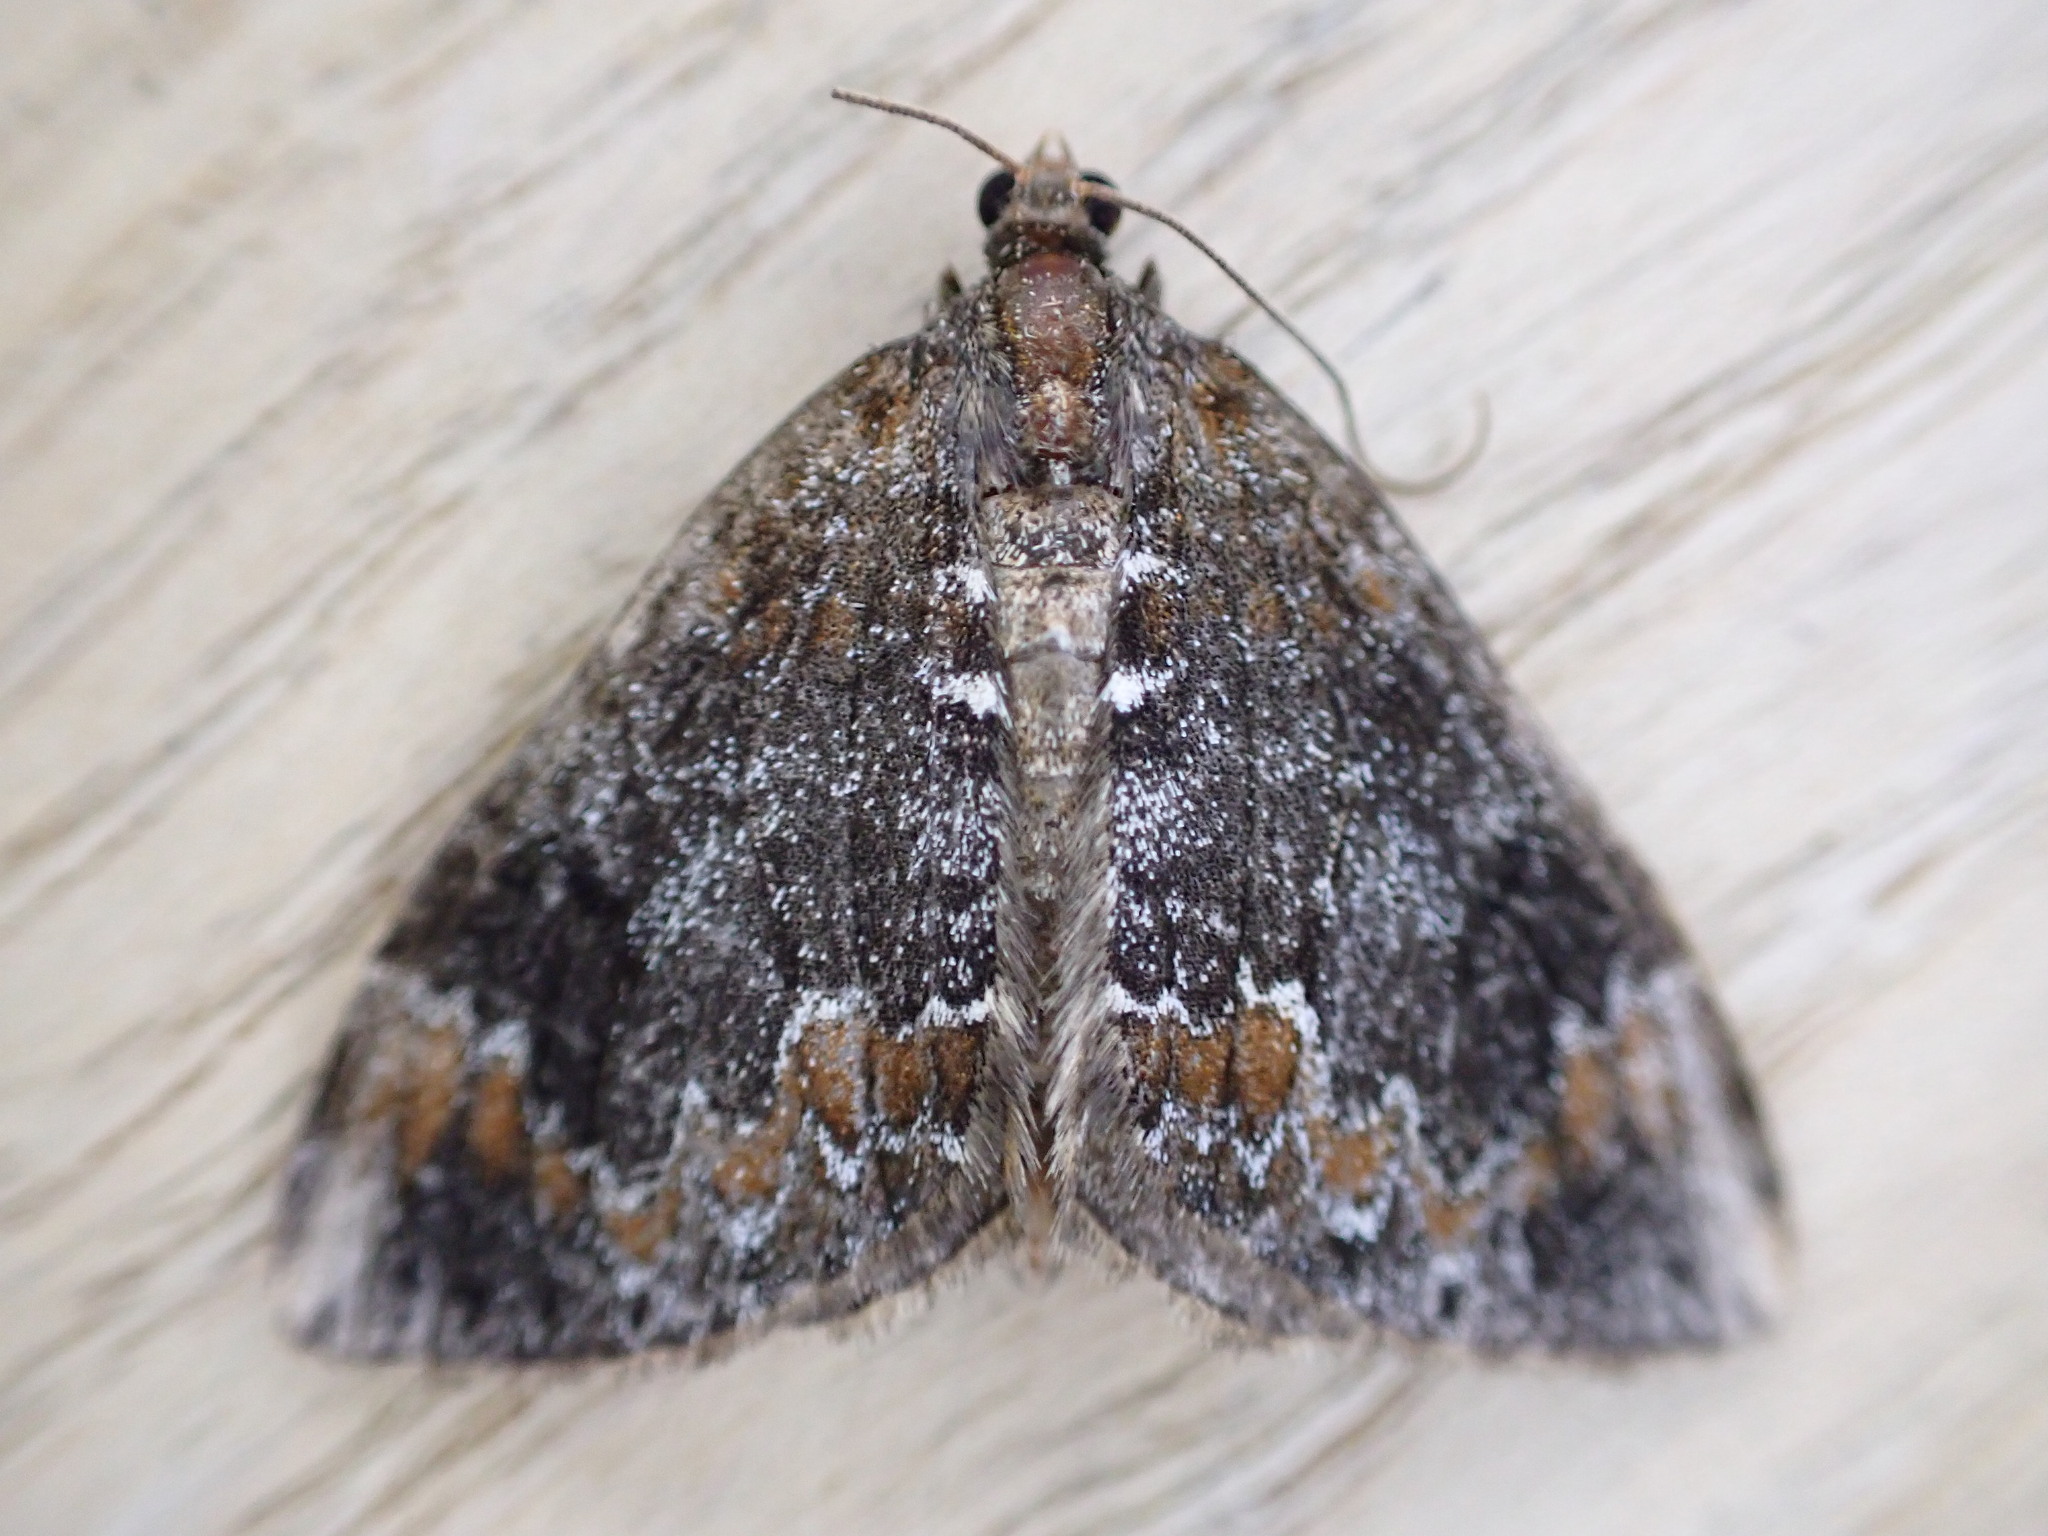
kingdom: Animalia
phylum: Arthropoda
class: Insecta
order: Lepidoptera
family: Geometridae
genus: Dysstroma
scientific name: Dysstroma truncata
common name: Common marbled carpet
